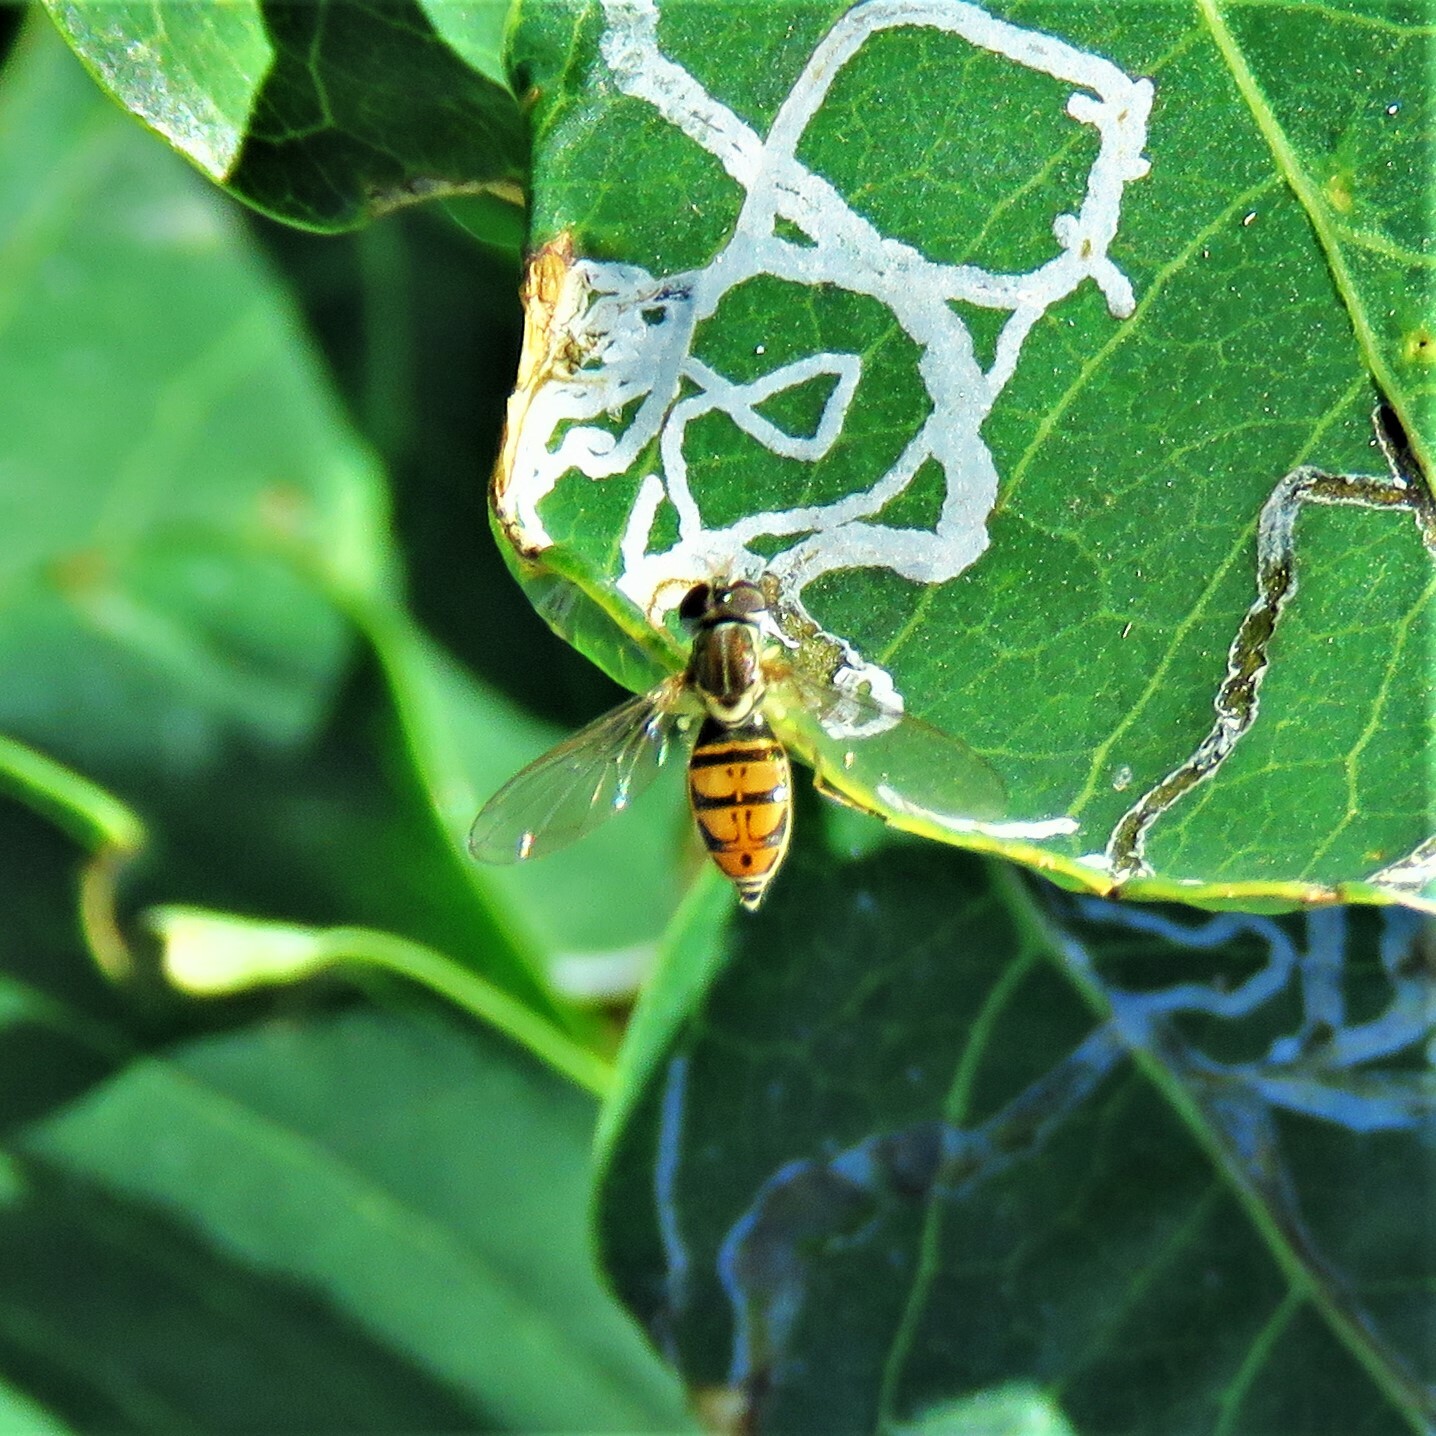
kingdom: Animalia
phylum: Arthropoda
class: Insecta
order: Diptera
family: Syrphidae
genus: Toxomerus
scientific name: Toxomerus marginatus
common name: Syrphid fly
